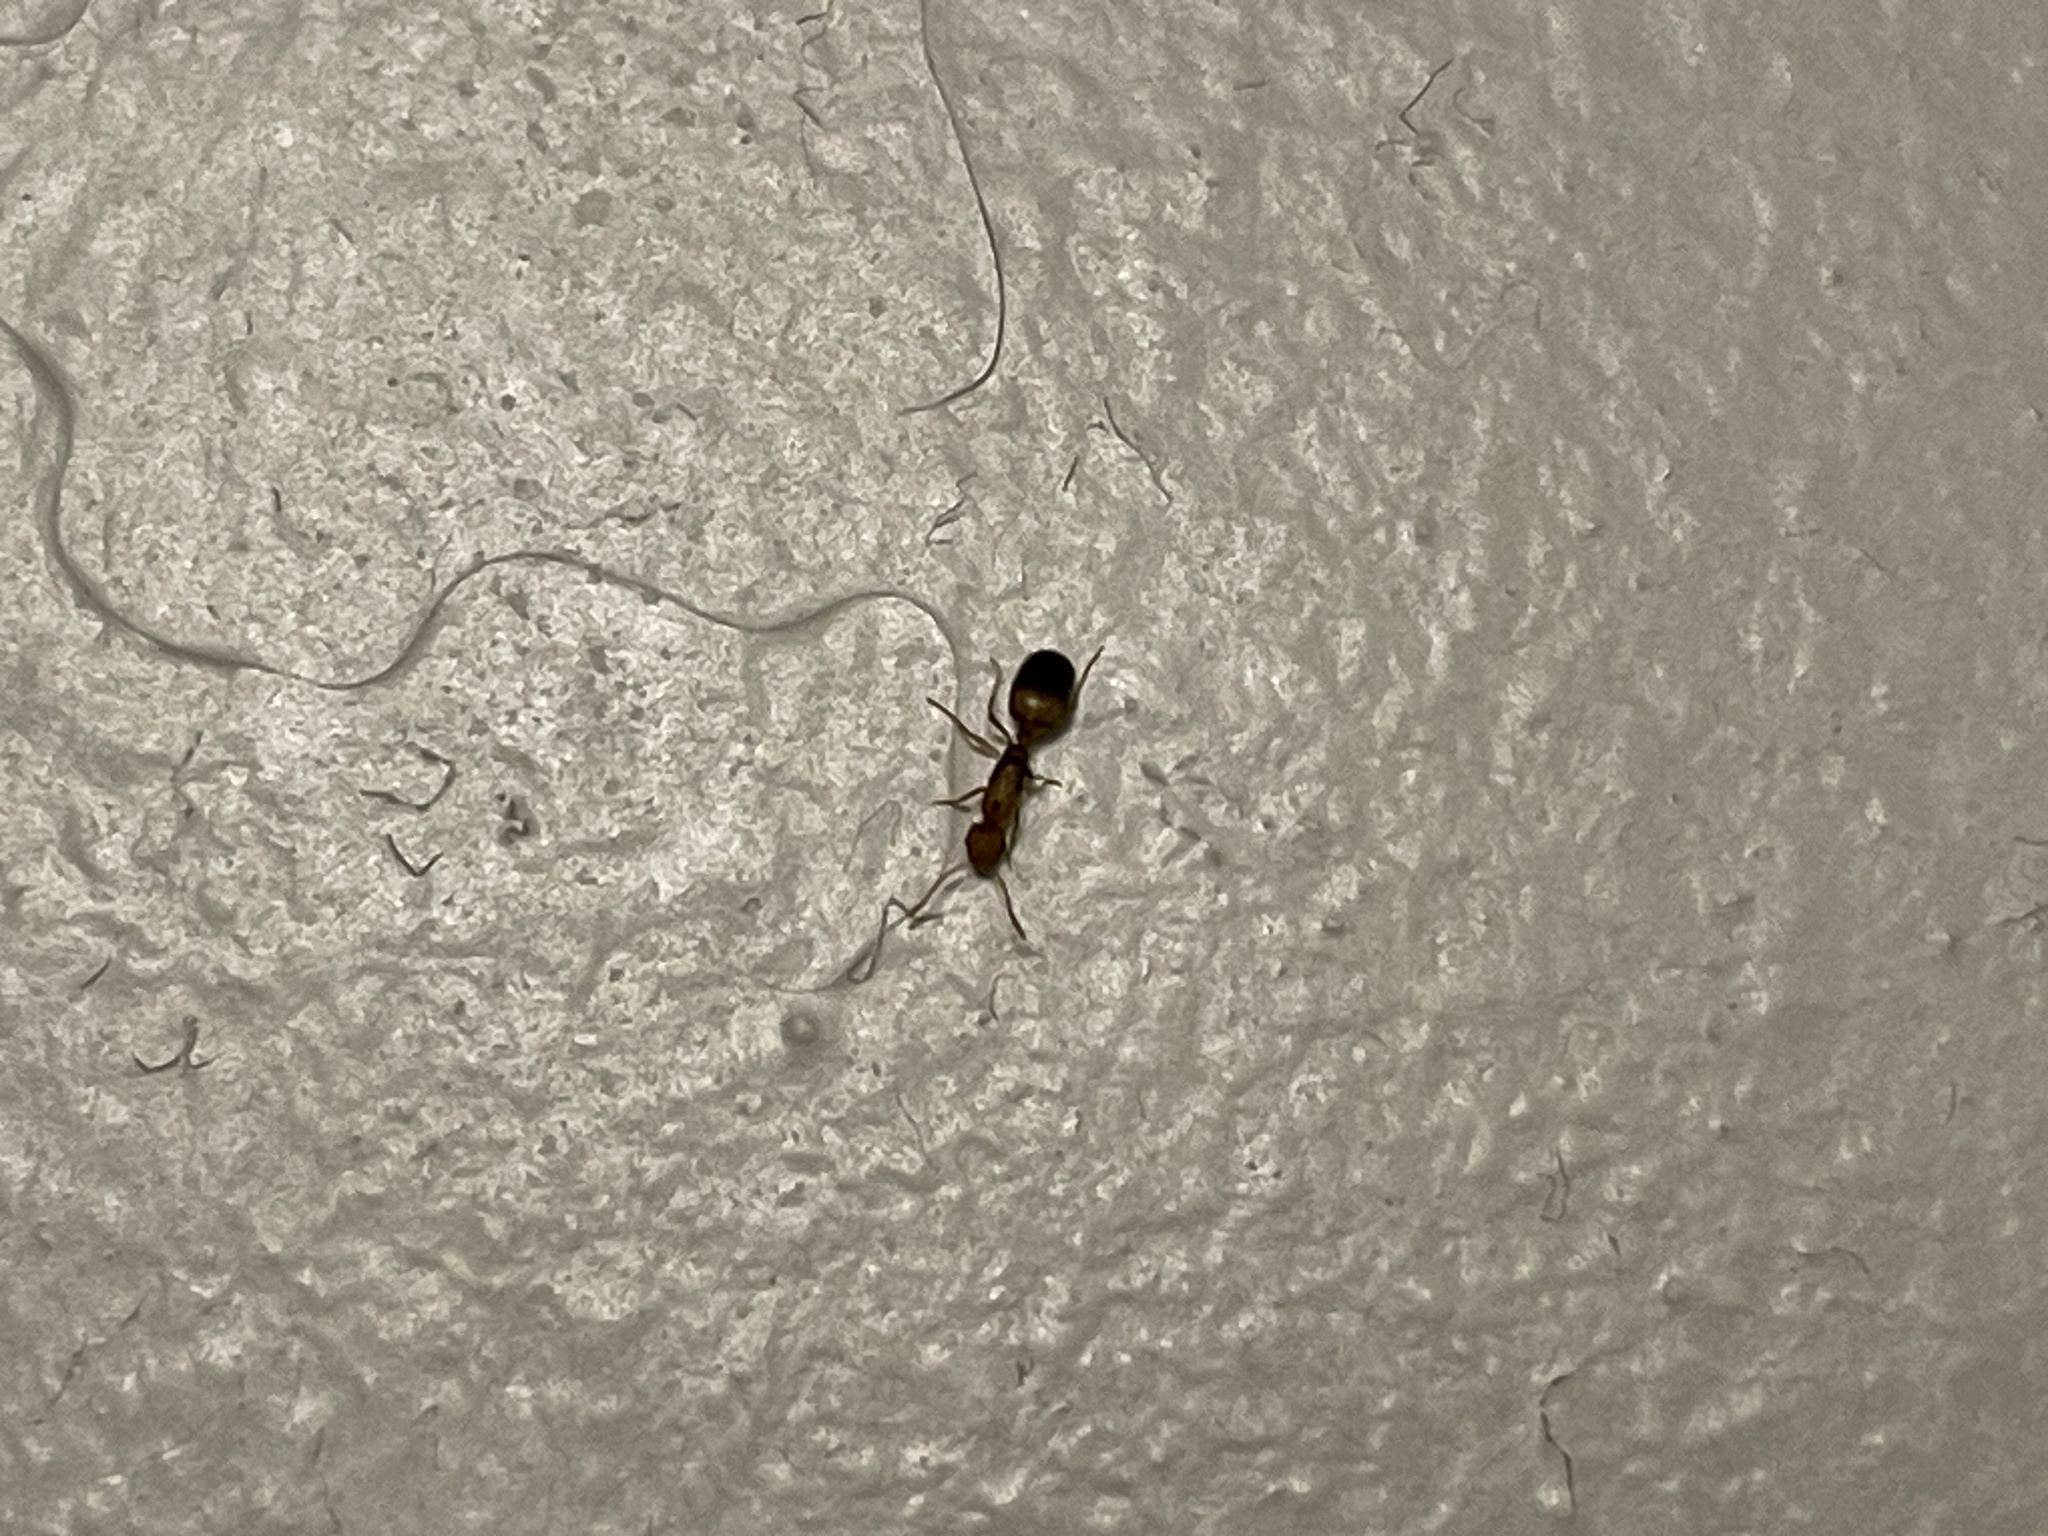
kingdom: Animalia
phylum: Arthropoda
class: Insecta
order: Hymenoptera
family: Formicidae
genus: Monomorium
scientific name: Monomorium pharaonis
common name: Pharaoh ant
